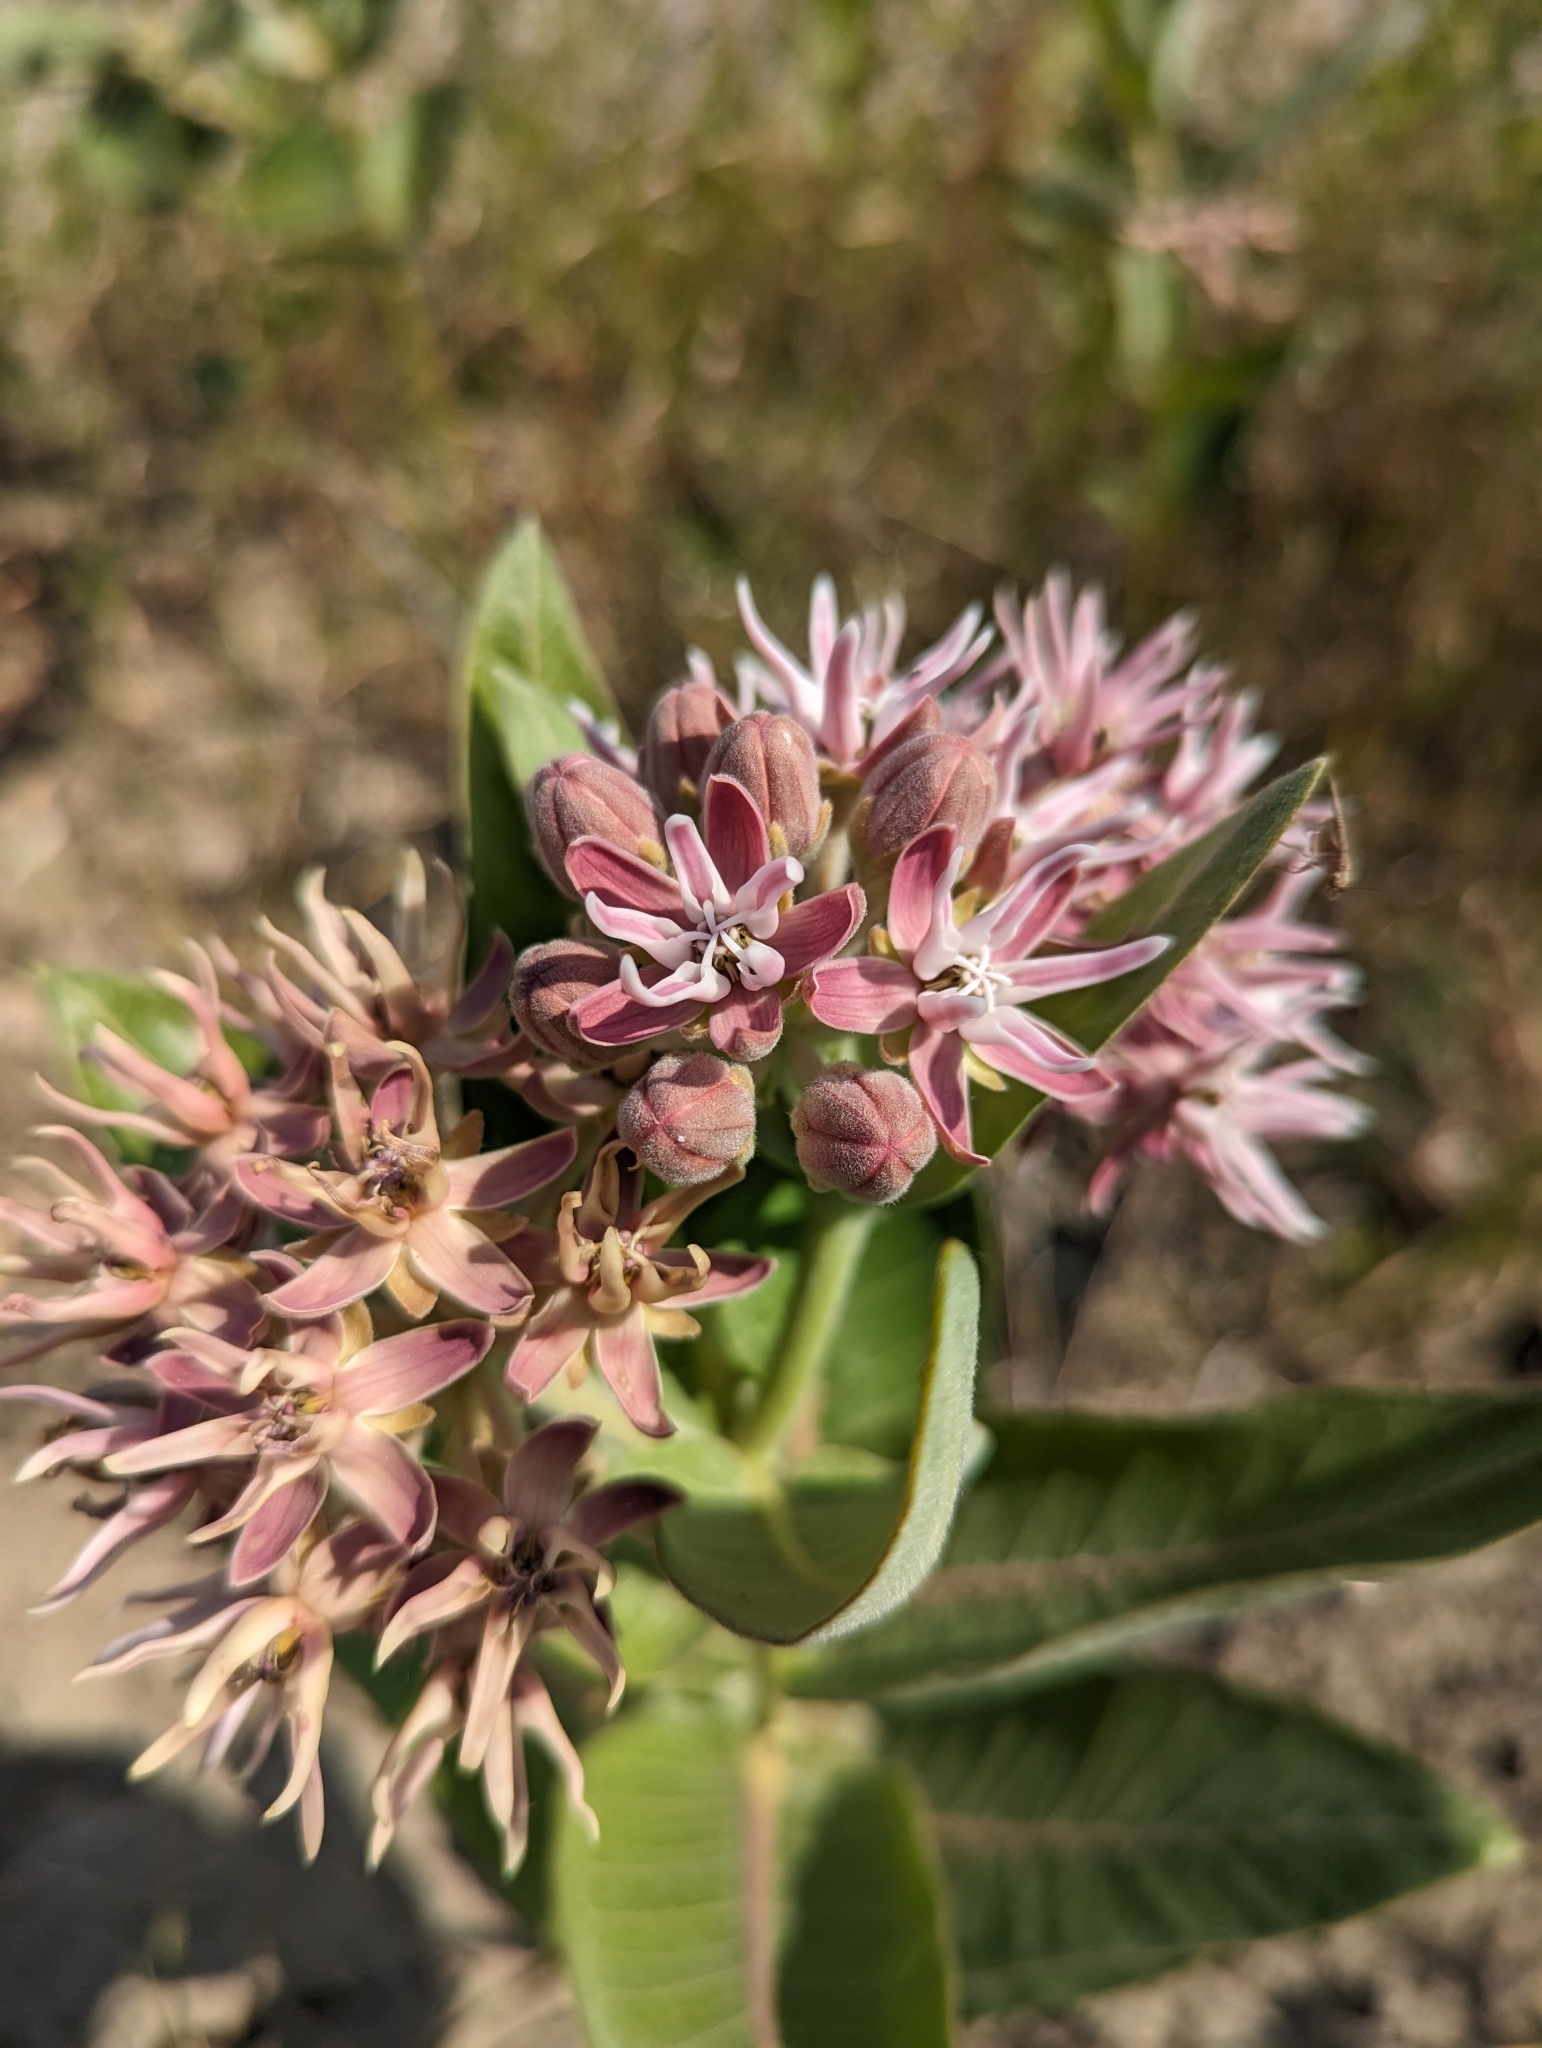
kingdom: Plantae
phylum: Tracheophyta
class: Magnoliopsida
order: Gentianales
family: Apocynaceae
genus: Asclepias
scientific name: Asclepias speciosa
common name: Showy milkweed
